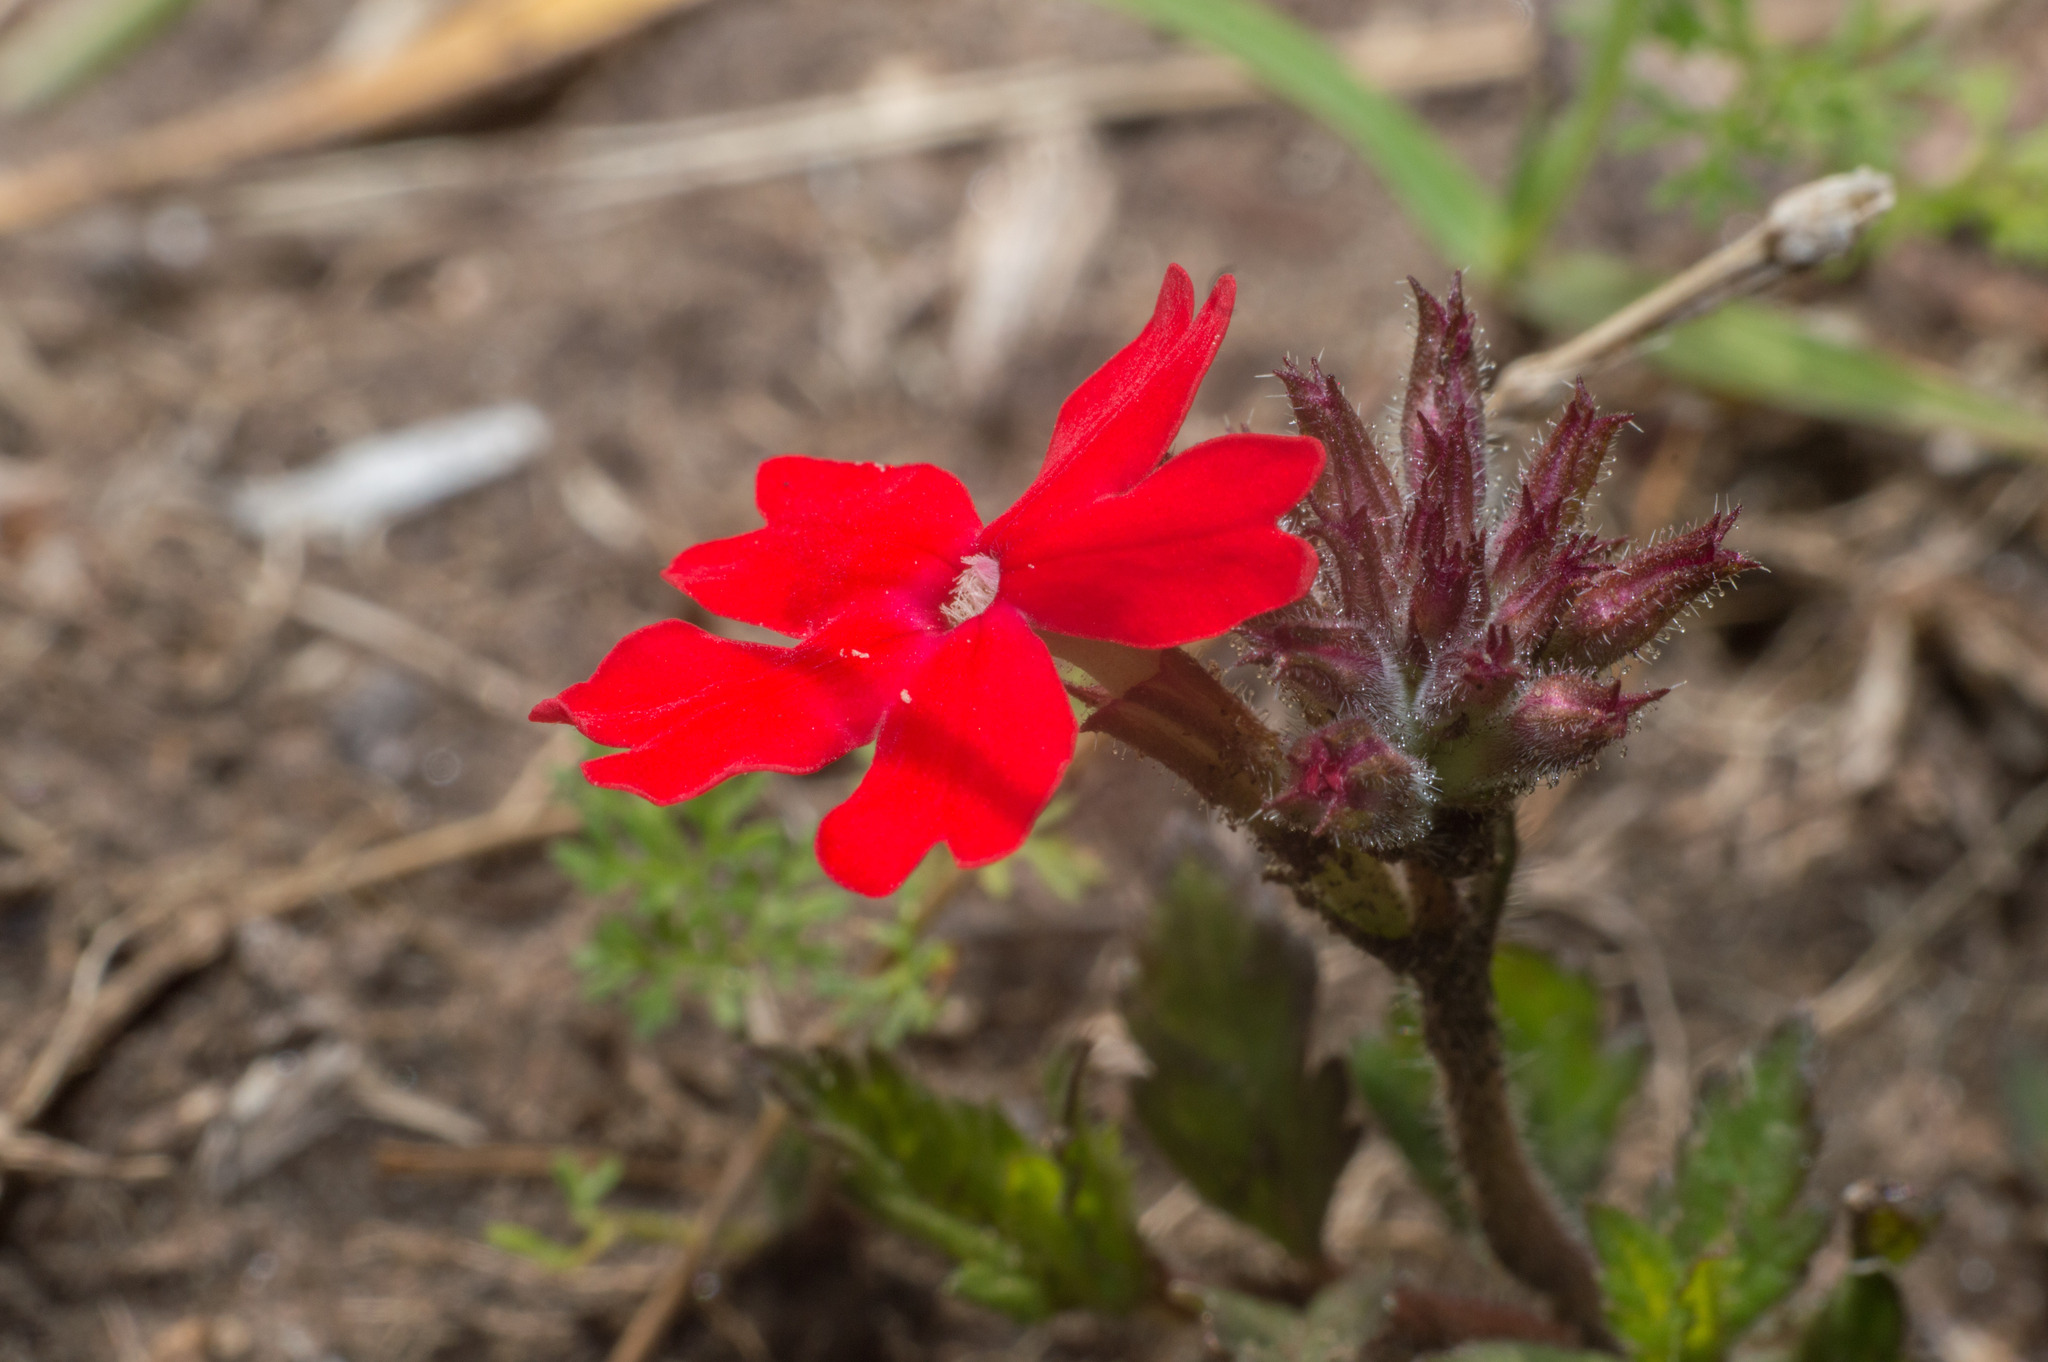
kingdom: Plantae
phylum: Tracheophyta
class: Magnoliopsida
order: Lamiales
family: Verbenaceae
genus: Verbena
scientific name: Verbena peruviana
